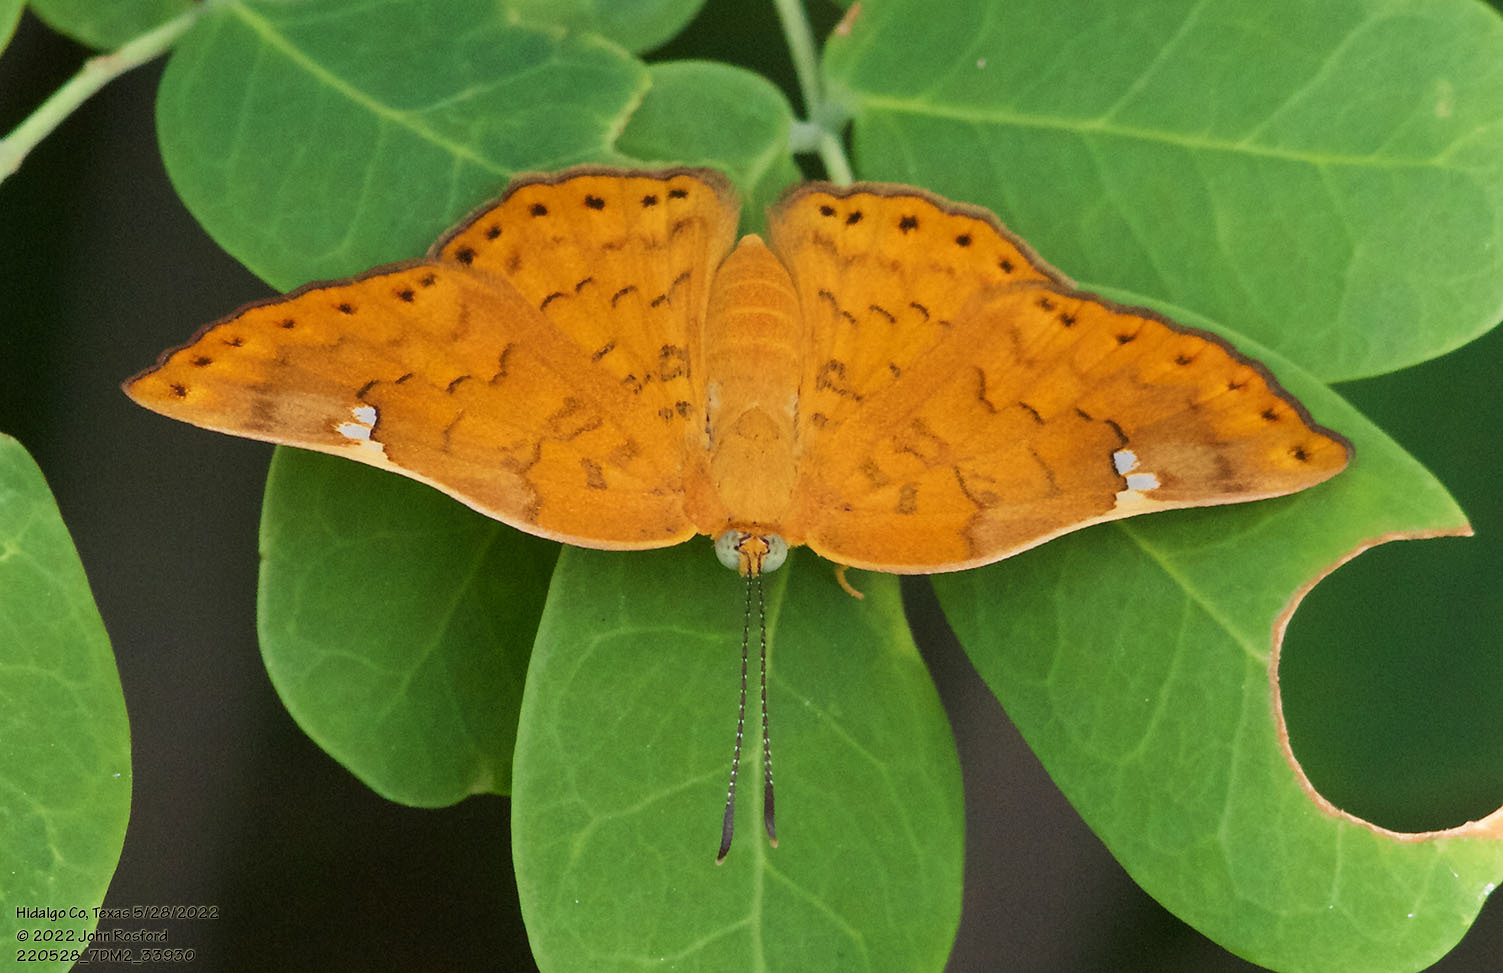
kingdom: Animalia
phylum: Arthropoda
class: Insecta
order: Lepidoptera
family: Riodinidae
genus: Curvie
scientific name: Curvie emesia
